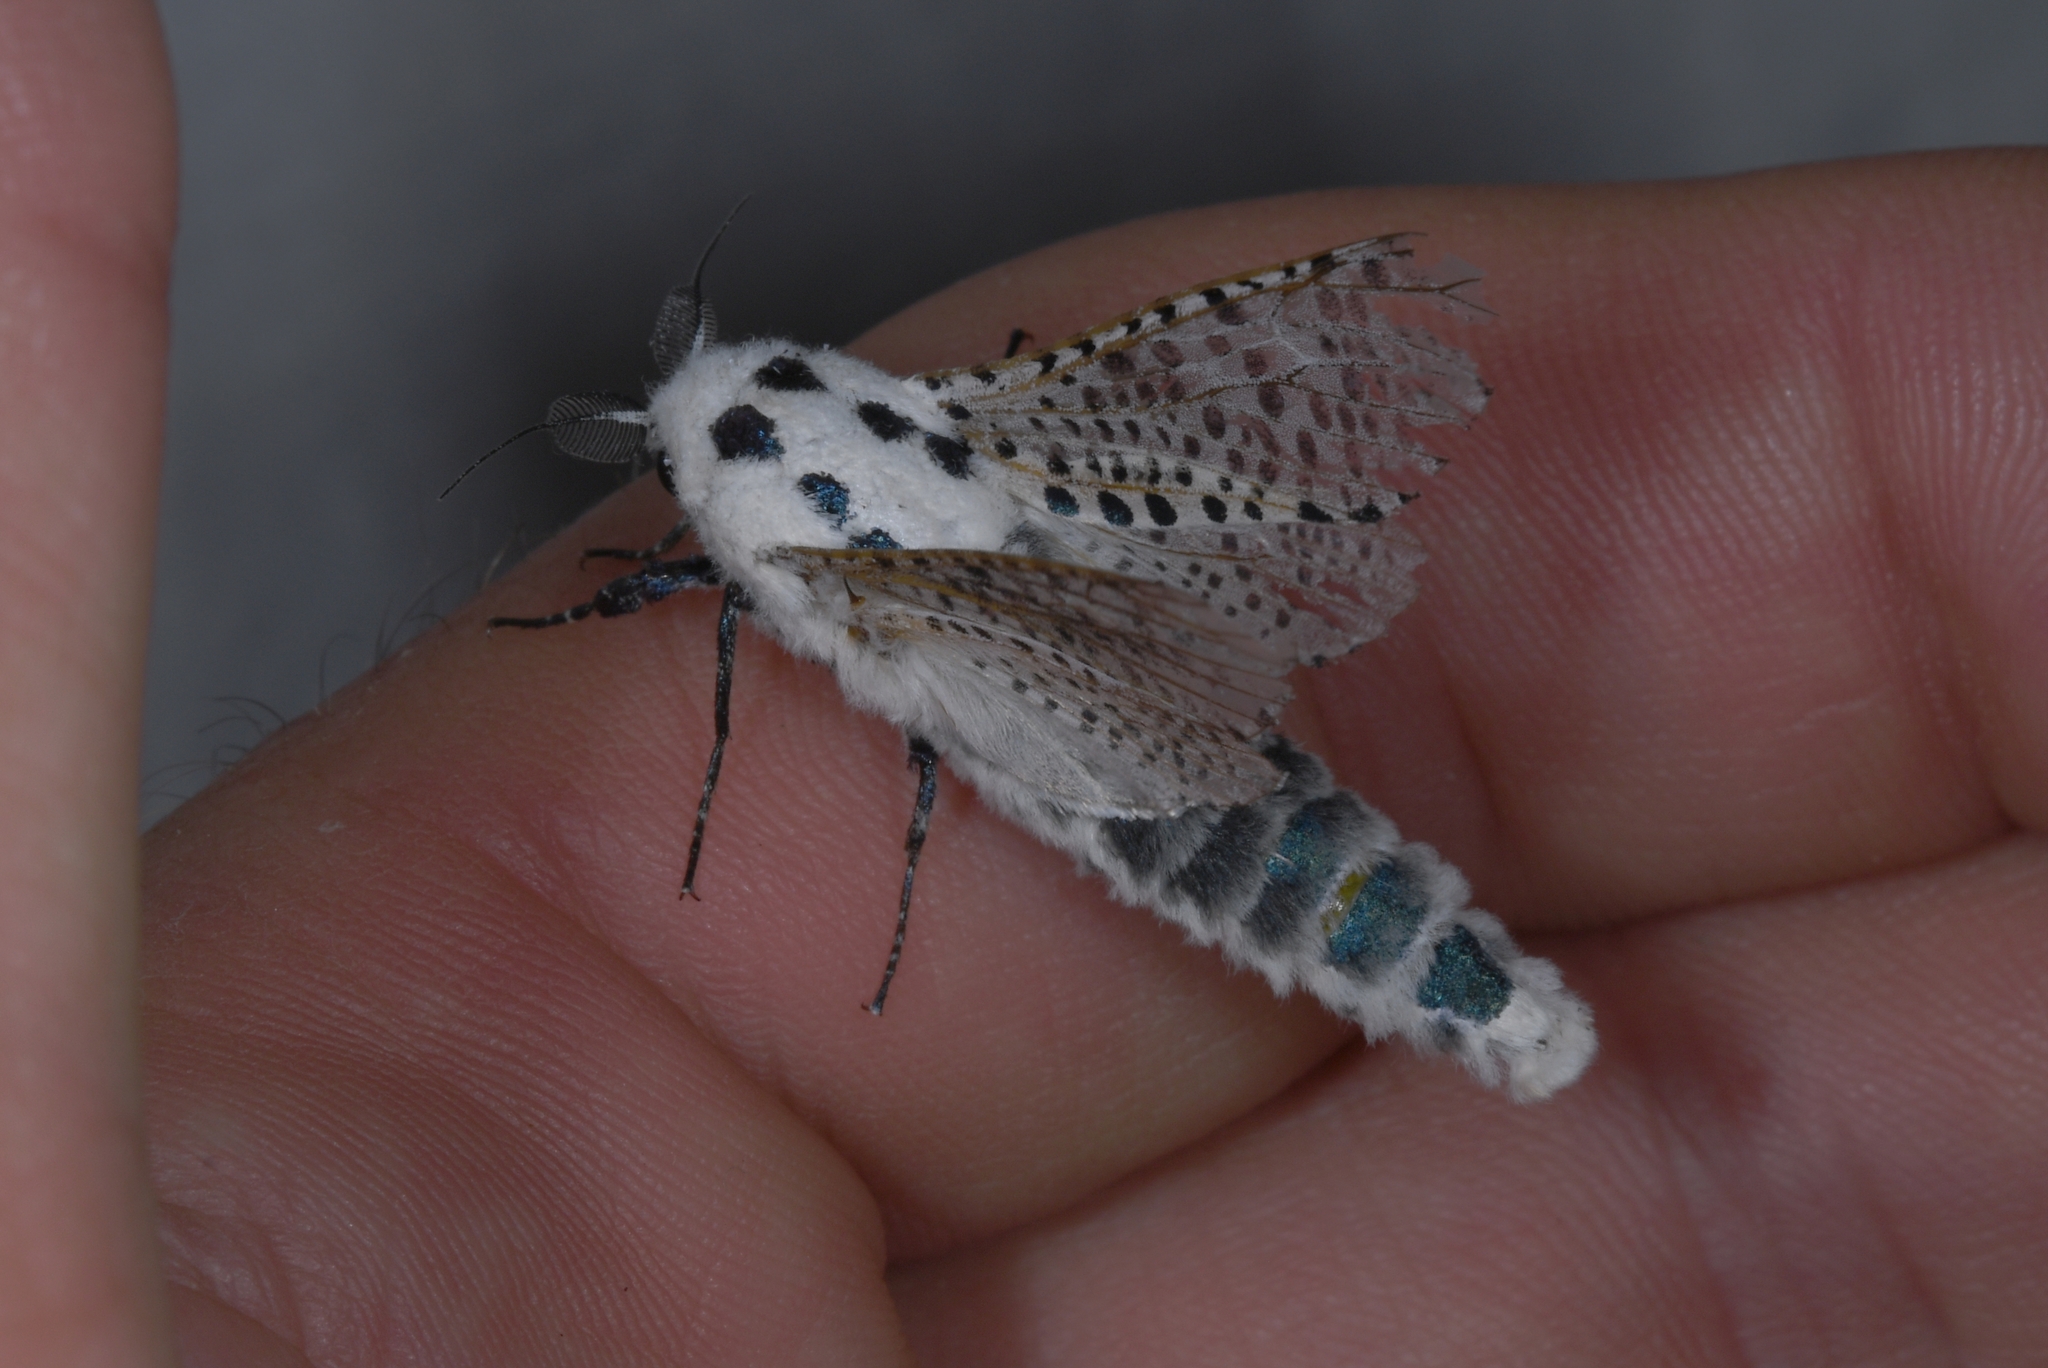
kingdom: Animalia
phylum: Arthropoda
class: Insecta
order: Lepidoptera
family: Cossidae
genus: Zeuzera
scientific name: Zeuzera pyrina
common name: Leopard moth
